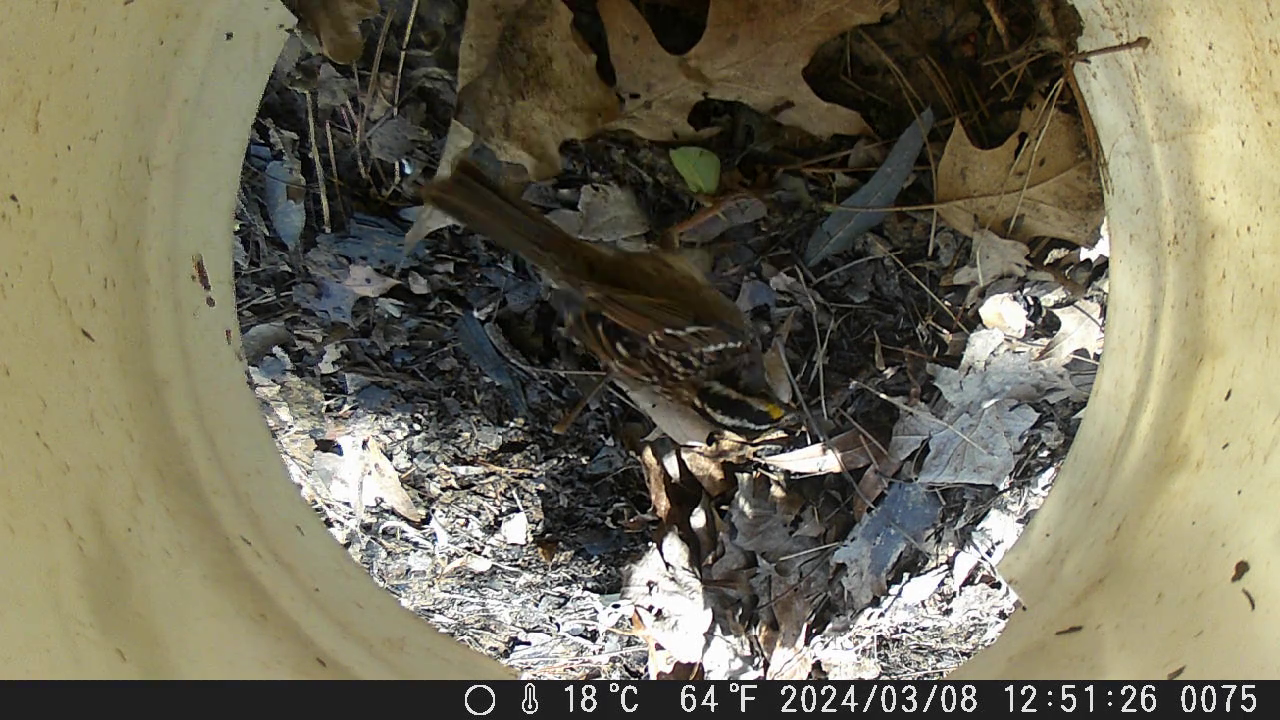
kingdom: Animalia
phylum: Chordata
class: Aves
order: Passeriformes
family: Passerellidae
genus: Zonotrichia
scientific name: Zonotrichia albicollis
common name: White-throated sparrow
